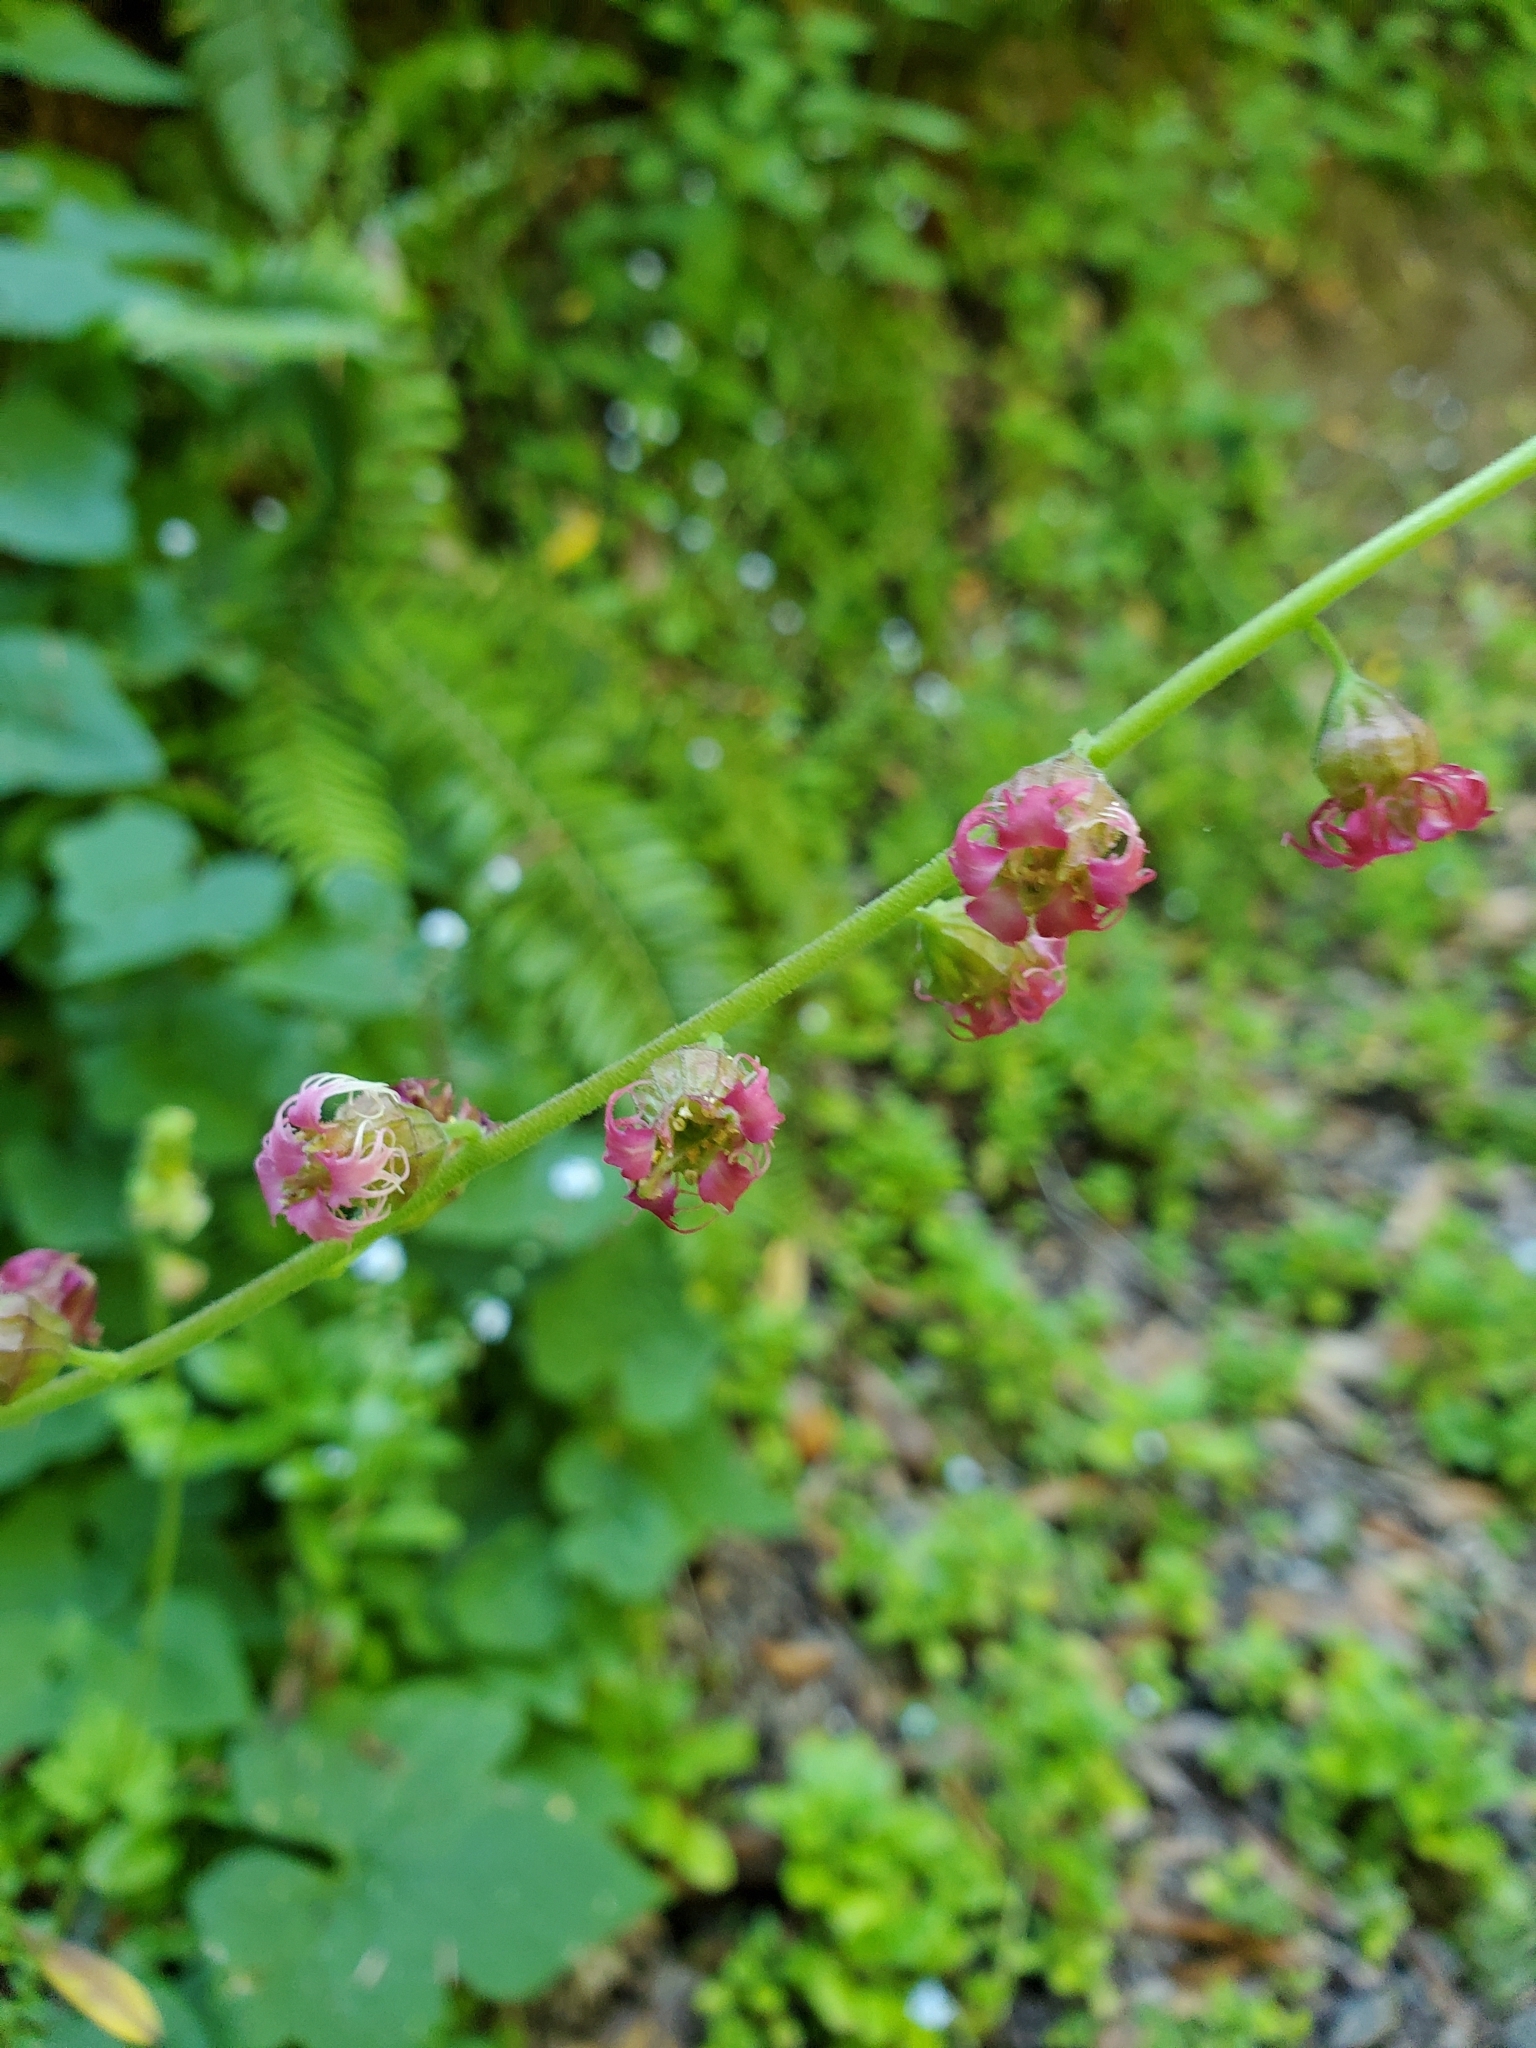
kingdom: Plantae
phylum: Tracheophyta
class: Magnoliopsida
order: Saxifragales
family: Saxifragaceae
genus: Tellima
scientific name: Tellima grandiflora
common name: Fringecups
